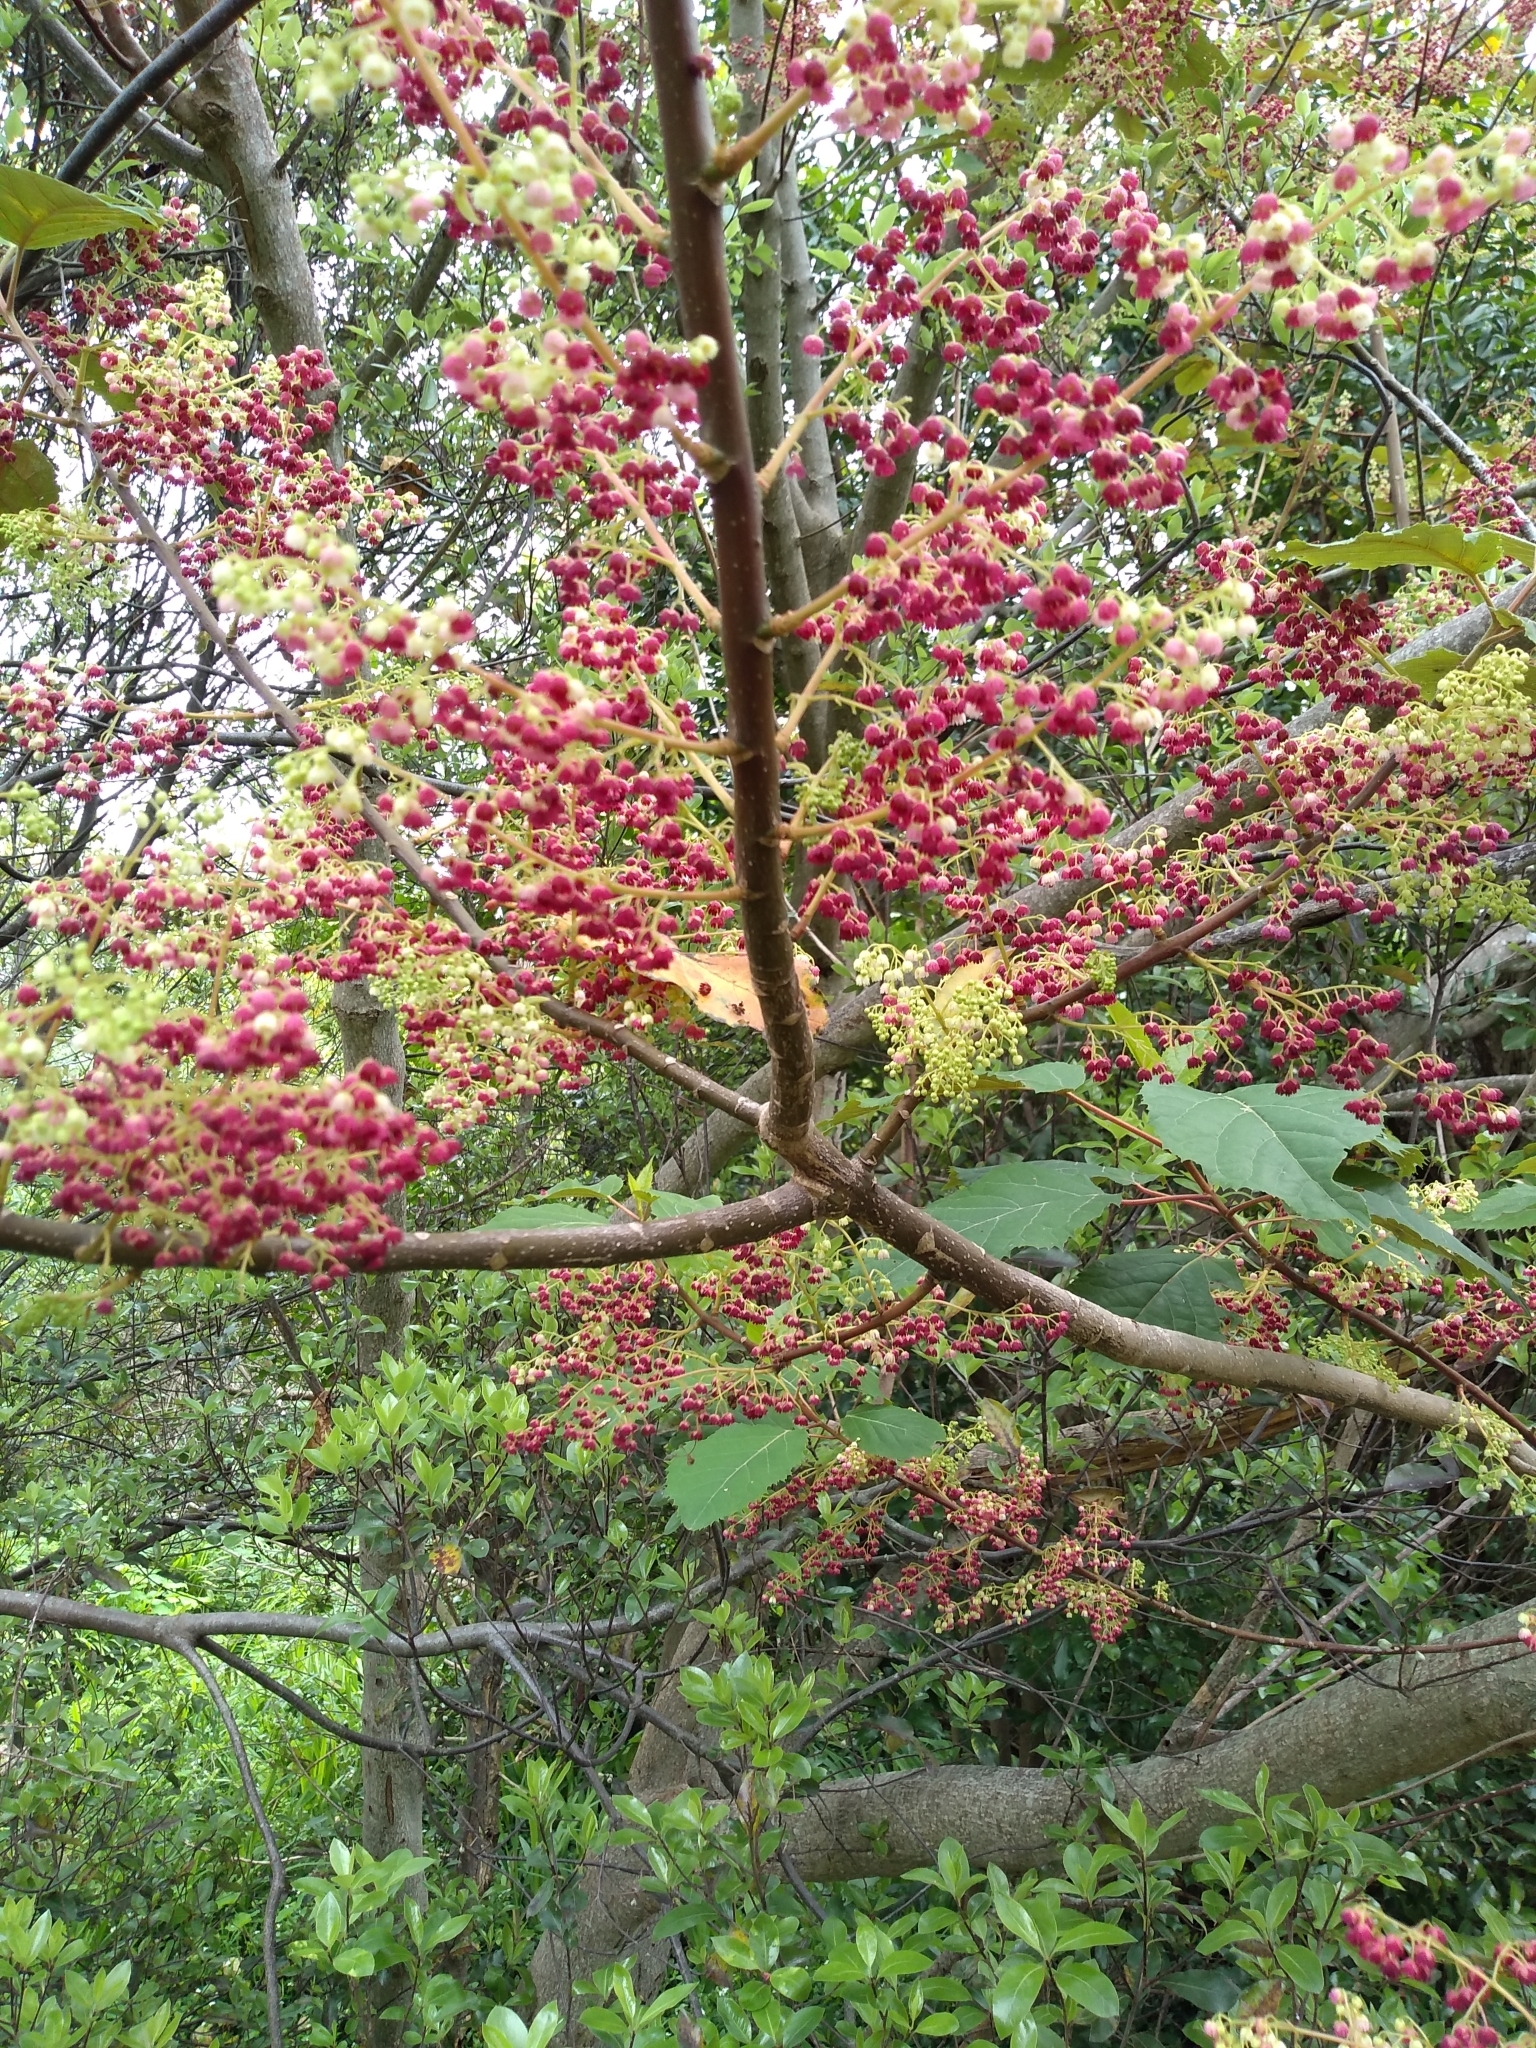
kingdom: Plantae
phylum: Tracheophyta
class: Magnoliopsida
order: Oxalidales
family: Elaeocarpaceae
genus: Aristotelia
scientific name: Aristotelia serrata
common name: New zealand wineberry
